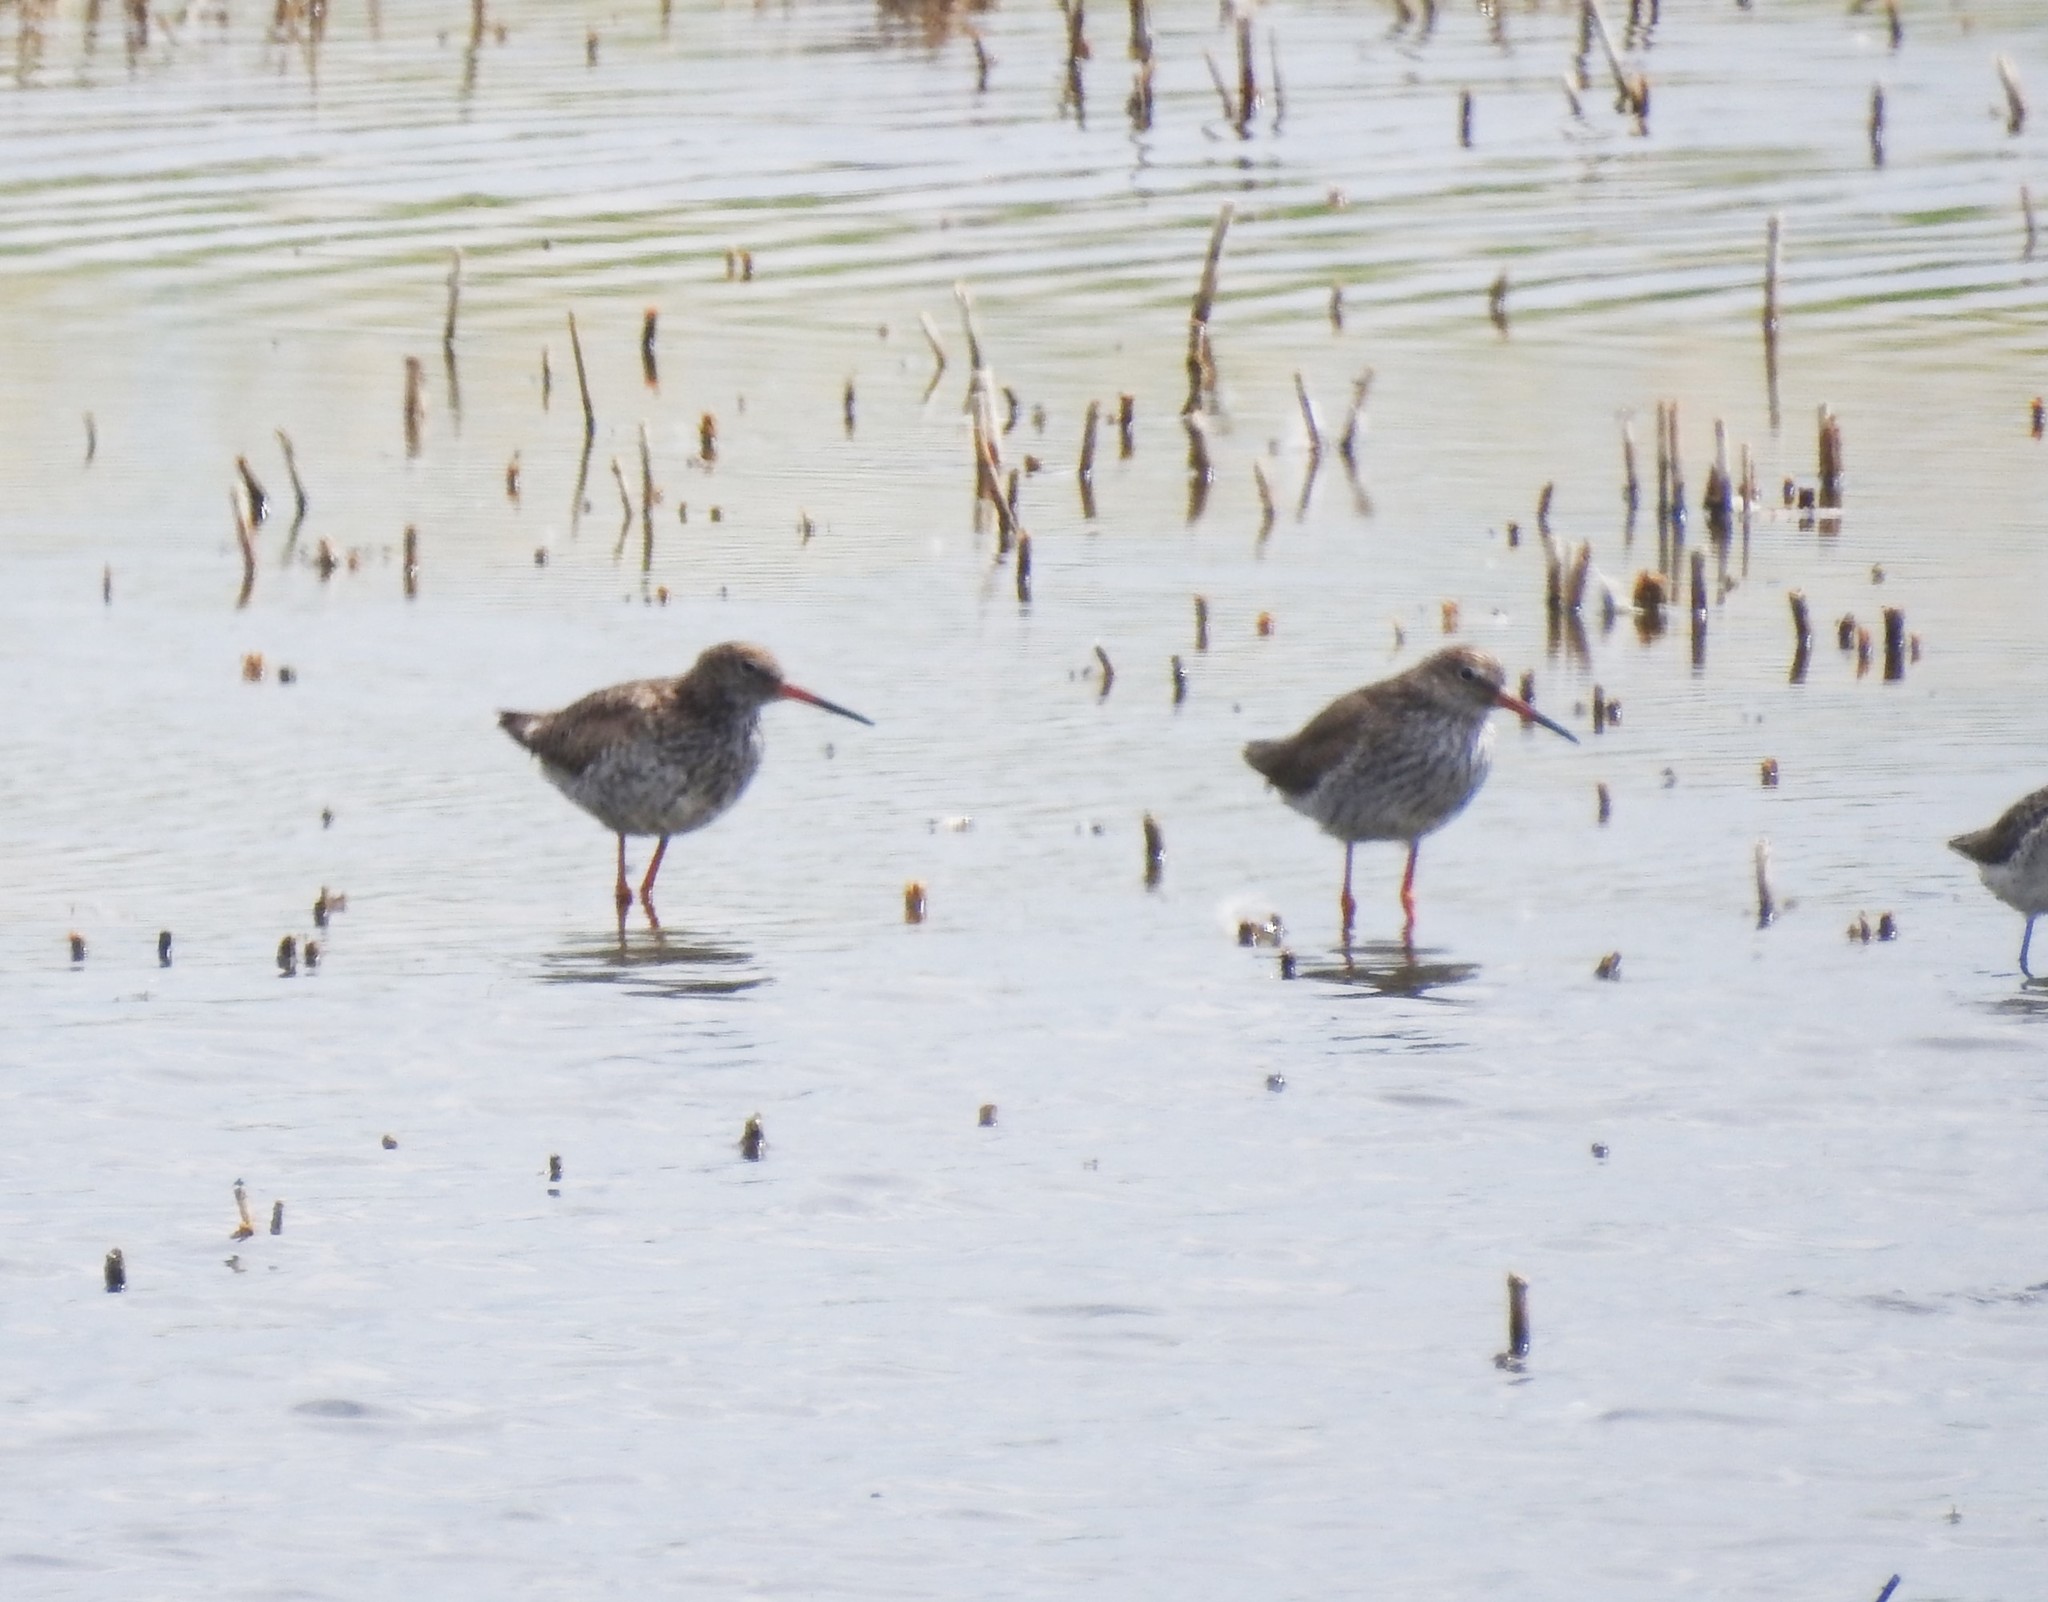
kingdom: Animalia
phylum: Chordata
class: Aves
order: Charadriiformes
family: Scolopacidae
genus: Tringa
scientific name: Tringa totanus
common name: Common redshank
